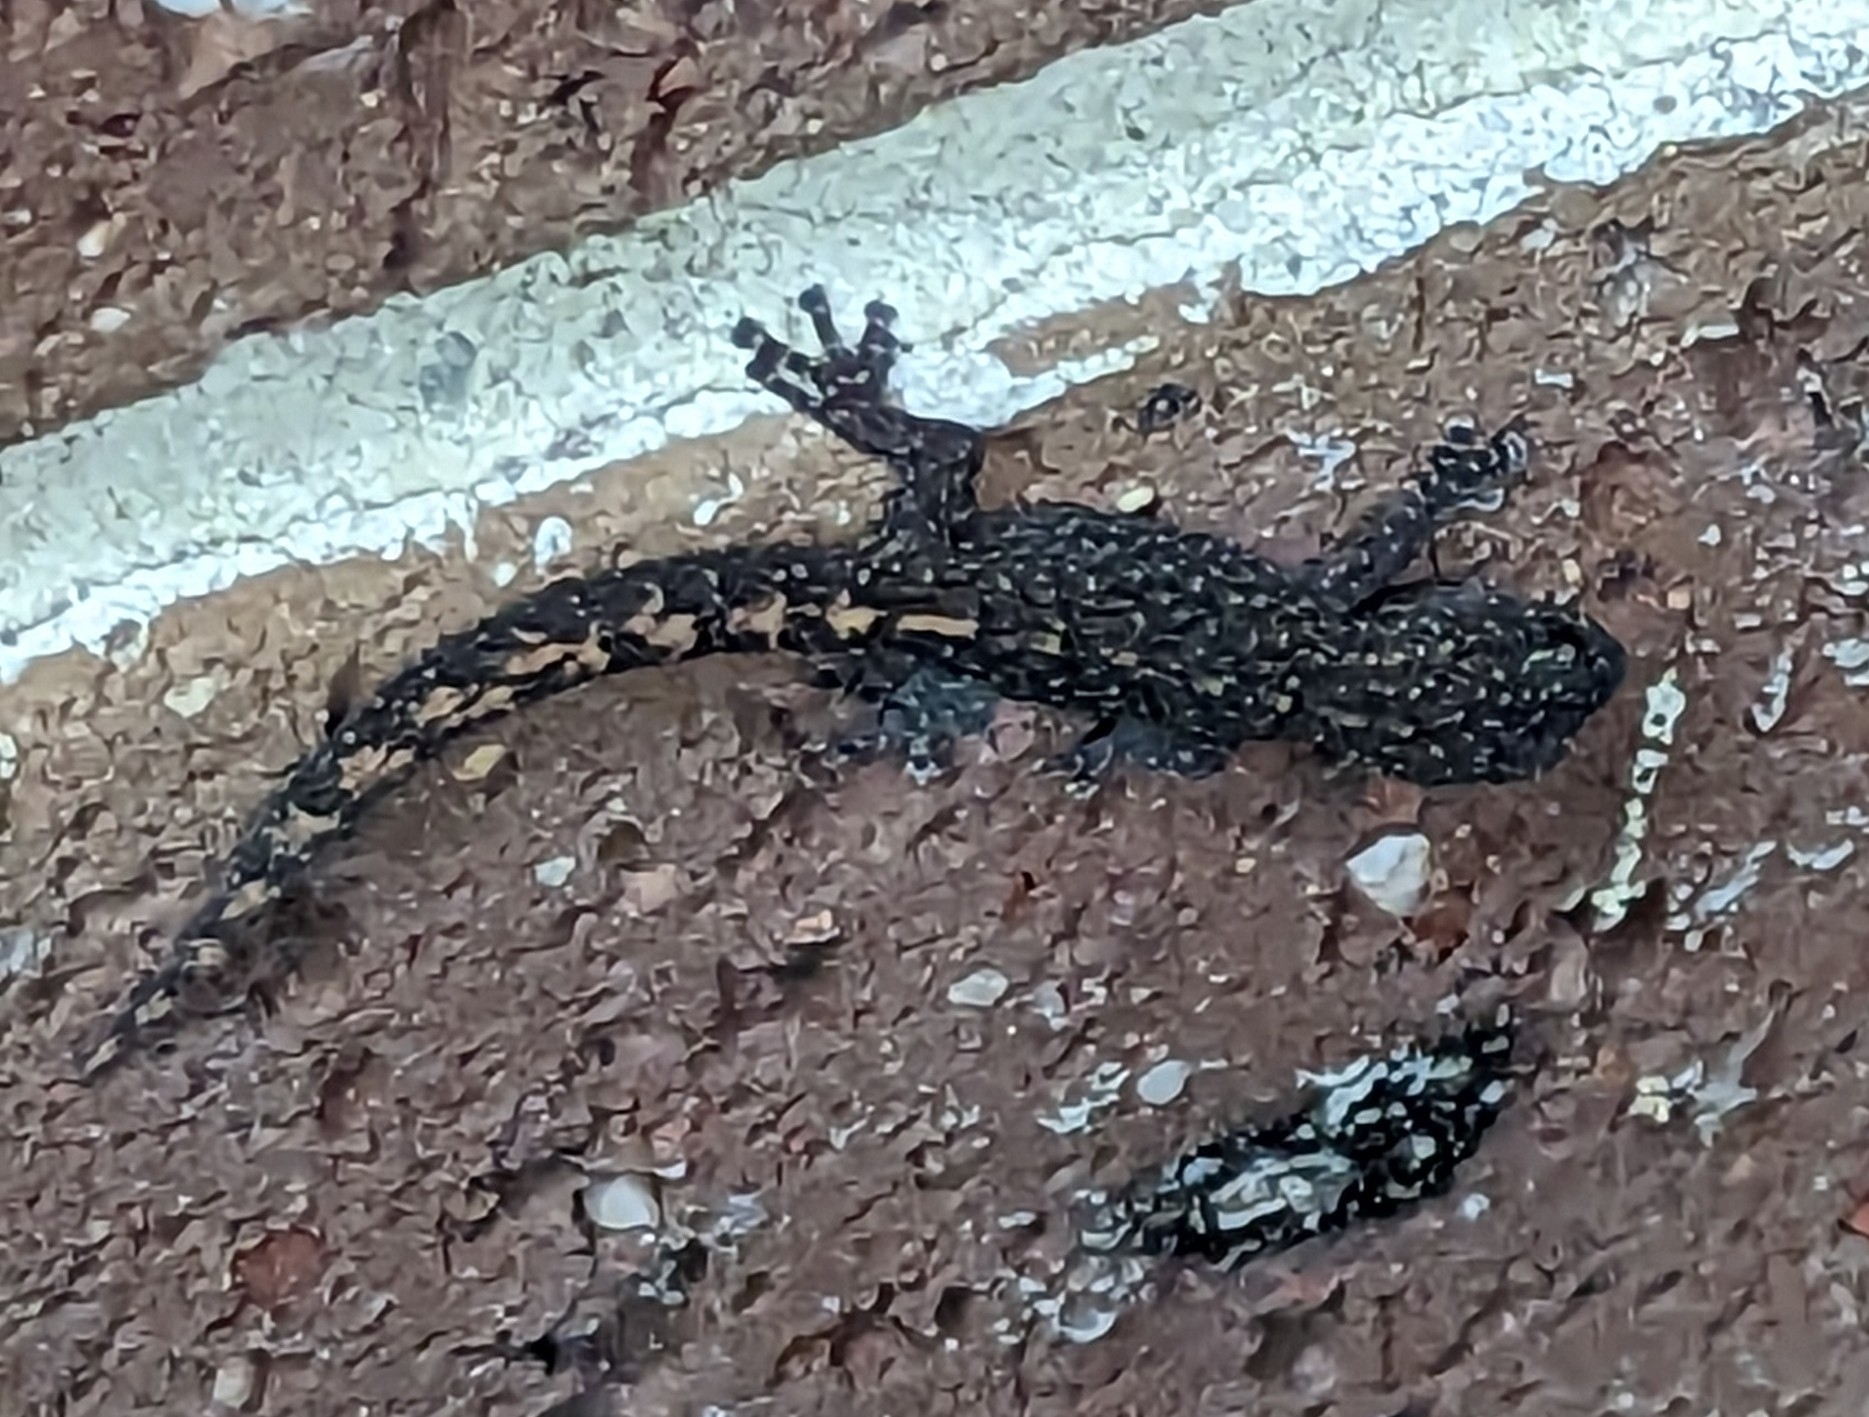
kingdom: Animalia
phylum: Chordata
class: Squamata
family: Gekkonidae
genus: Christinus
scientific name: Christinus marmoratus
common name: Marbled gecko
